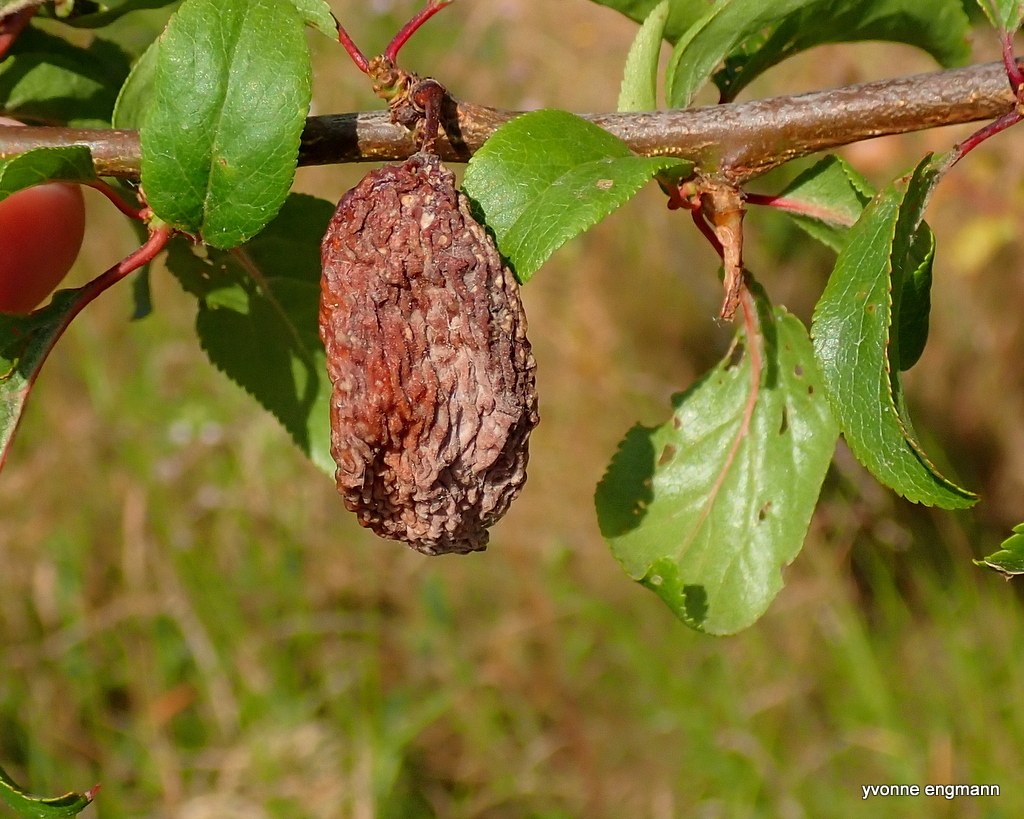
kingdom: Fungi
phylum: Ascomycota
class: Taphrinomycetes
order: Taphrinales
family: Taphrinaceae
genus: Taphrina
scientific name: Taphrina pruni
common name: Pocket plum
